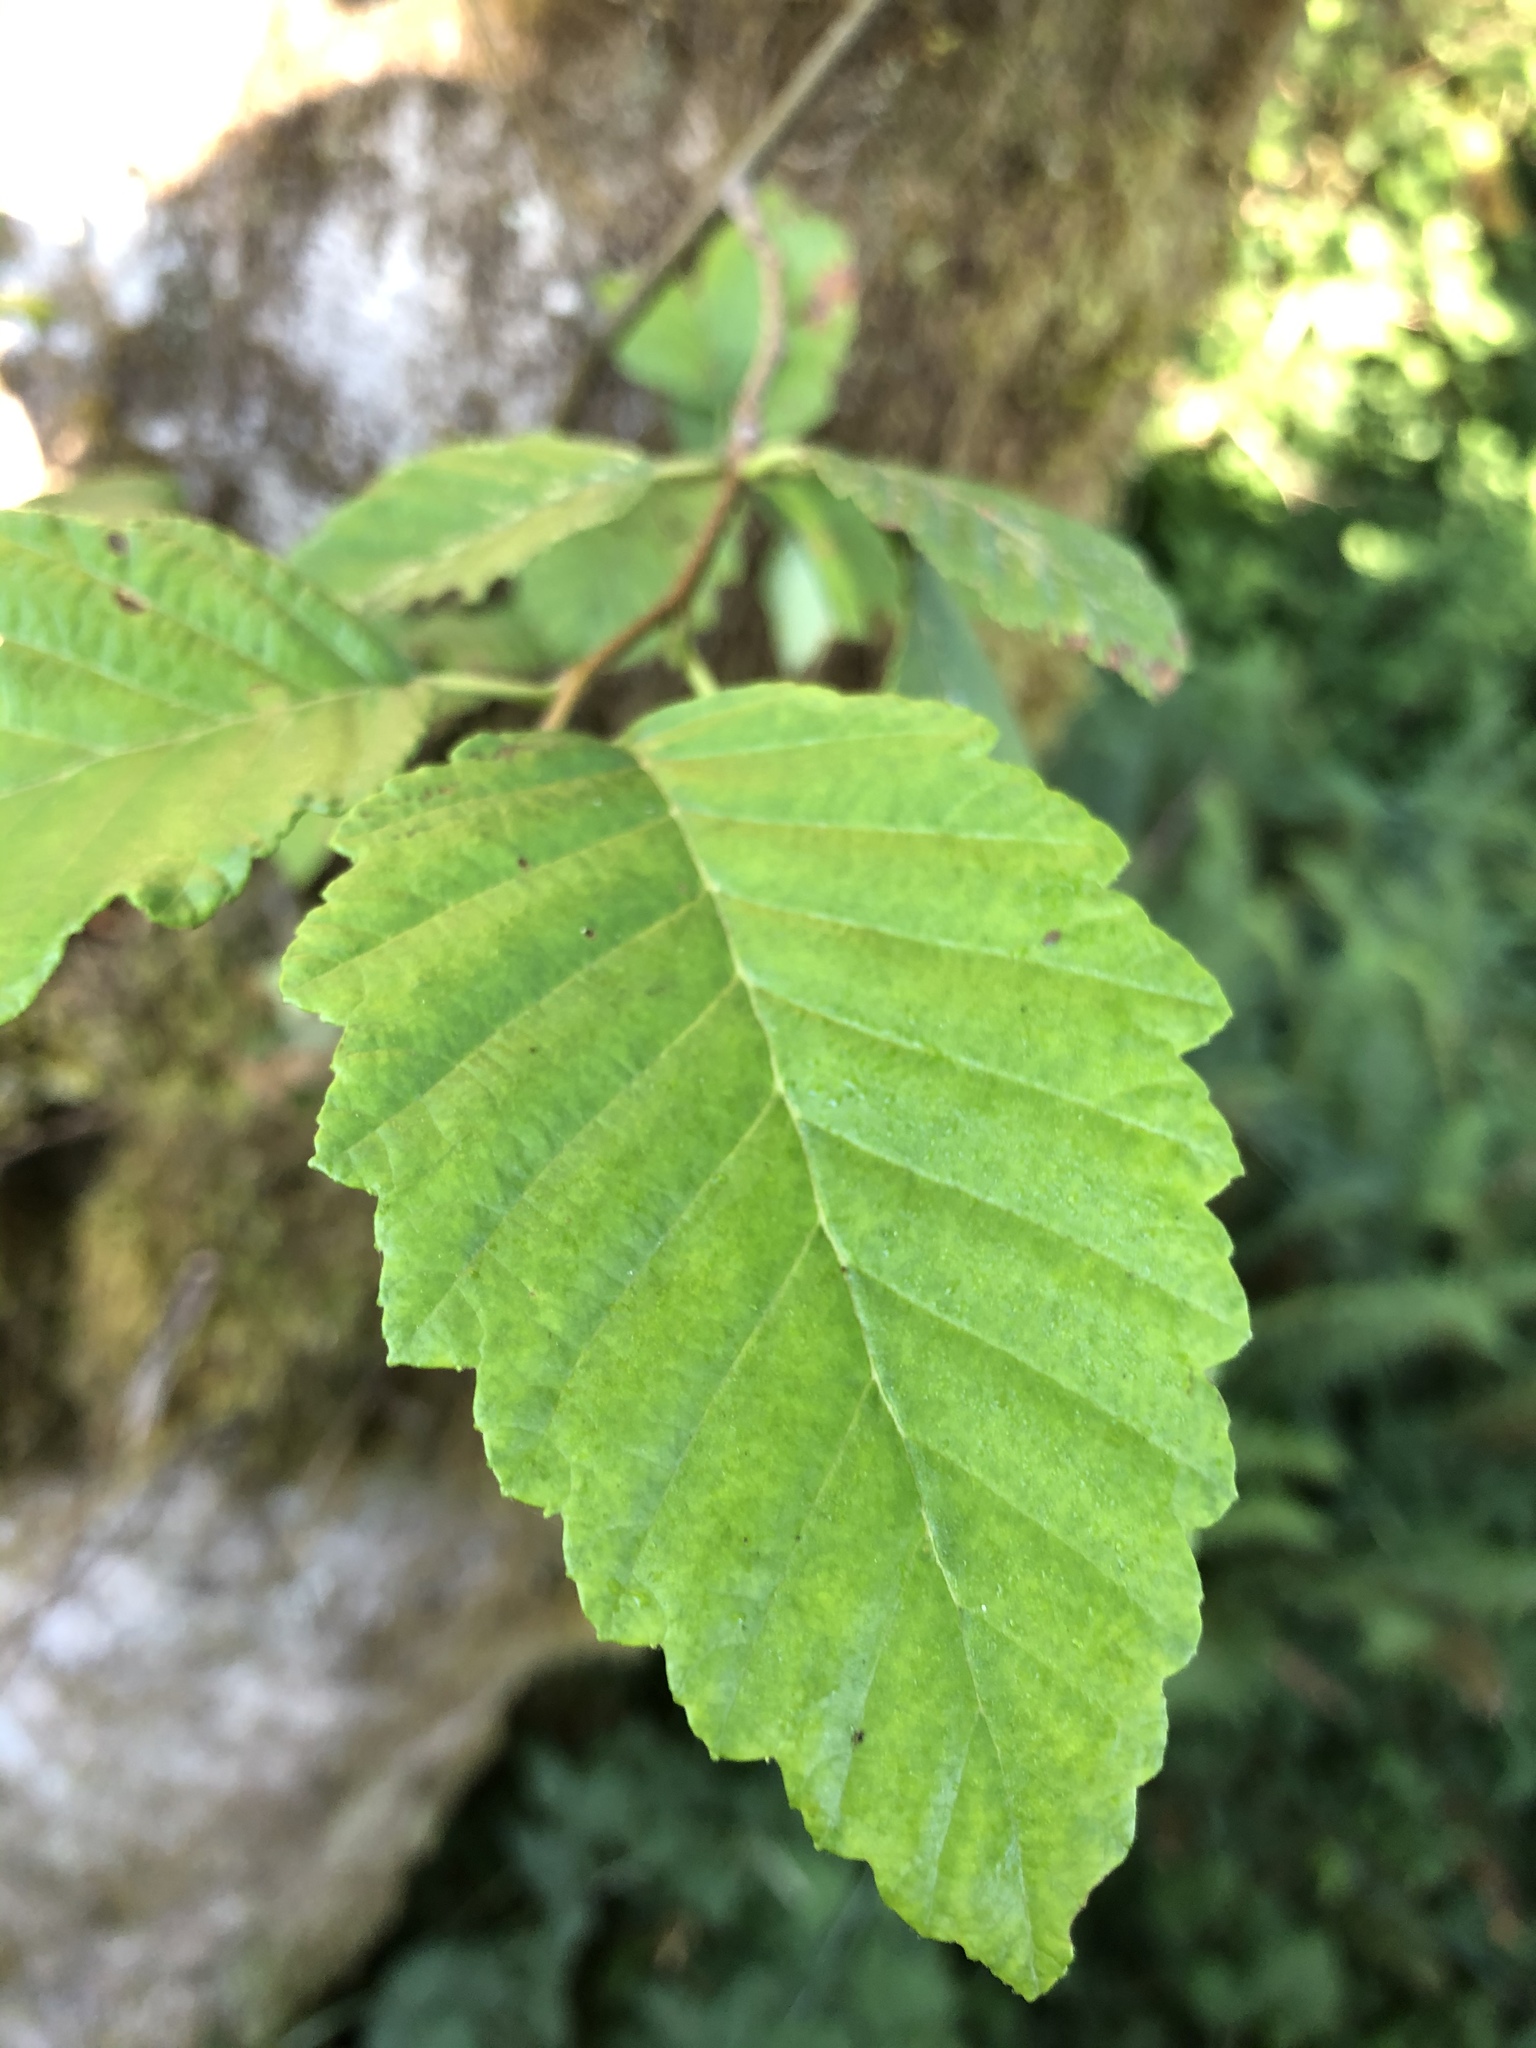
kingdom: Plantae
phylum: Tracheophyta
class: Magnoliopsida
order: Fagales
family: Betulaceae
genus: Alnus
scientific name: Alnus rubra
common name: Red alder
